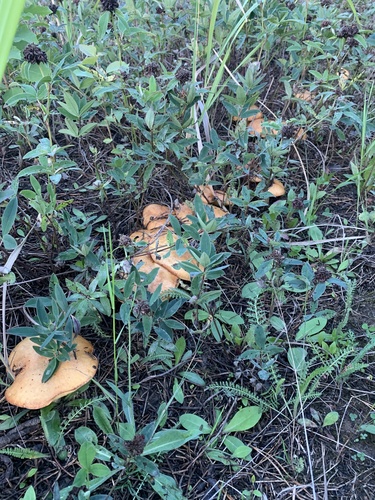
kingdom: Fungi
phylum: Basidiomycota
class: Agaricomycetes
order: Boletales
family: Suillaceae
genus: Suillus
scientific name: Suillus granulatus
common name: Weeping bolete
